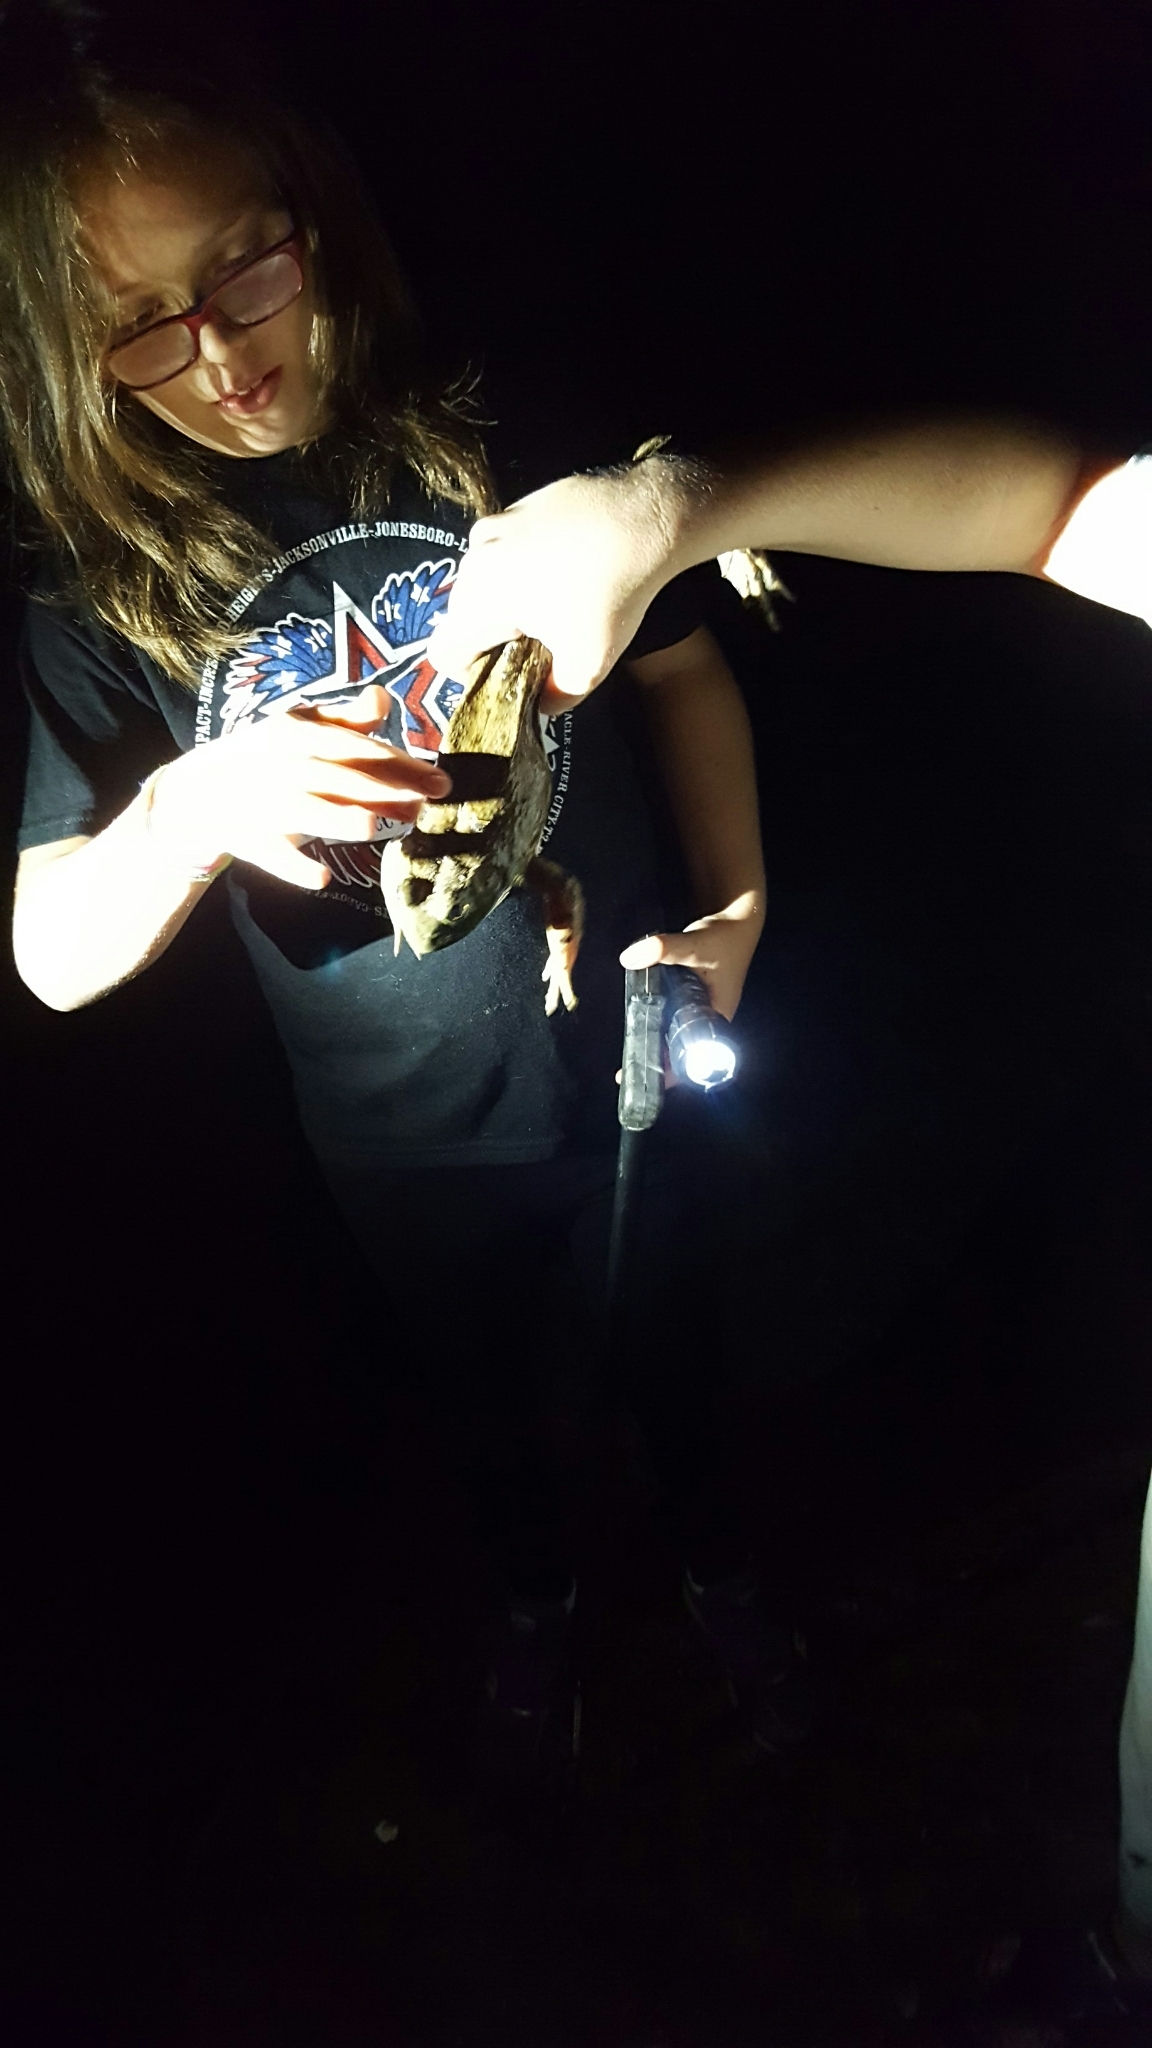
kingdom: Animalia
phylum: Chordata
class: Amphibia
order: Anura
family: Ranidae
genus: Lithobates
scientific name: Lithobates catesbeianus
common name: American bullfrog
